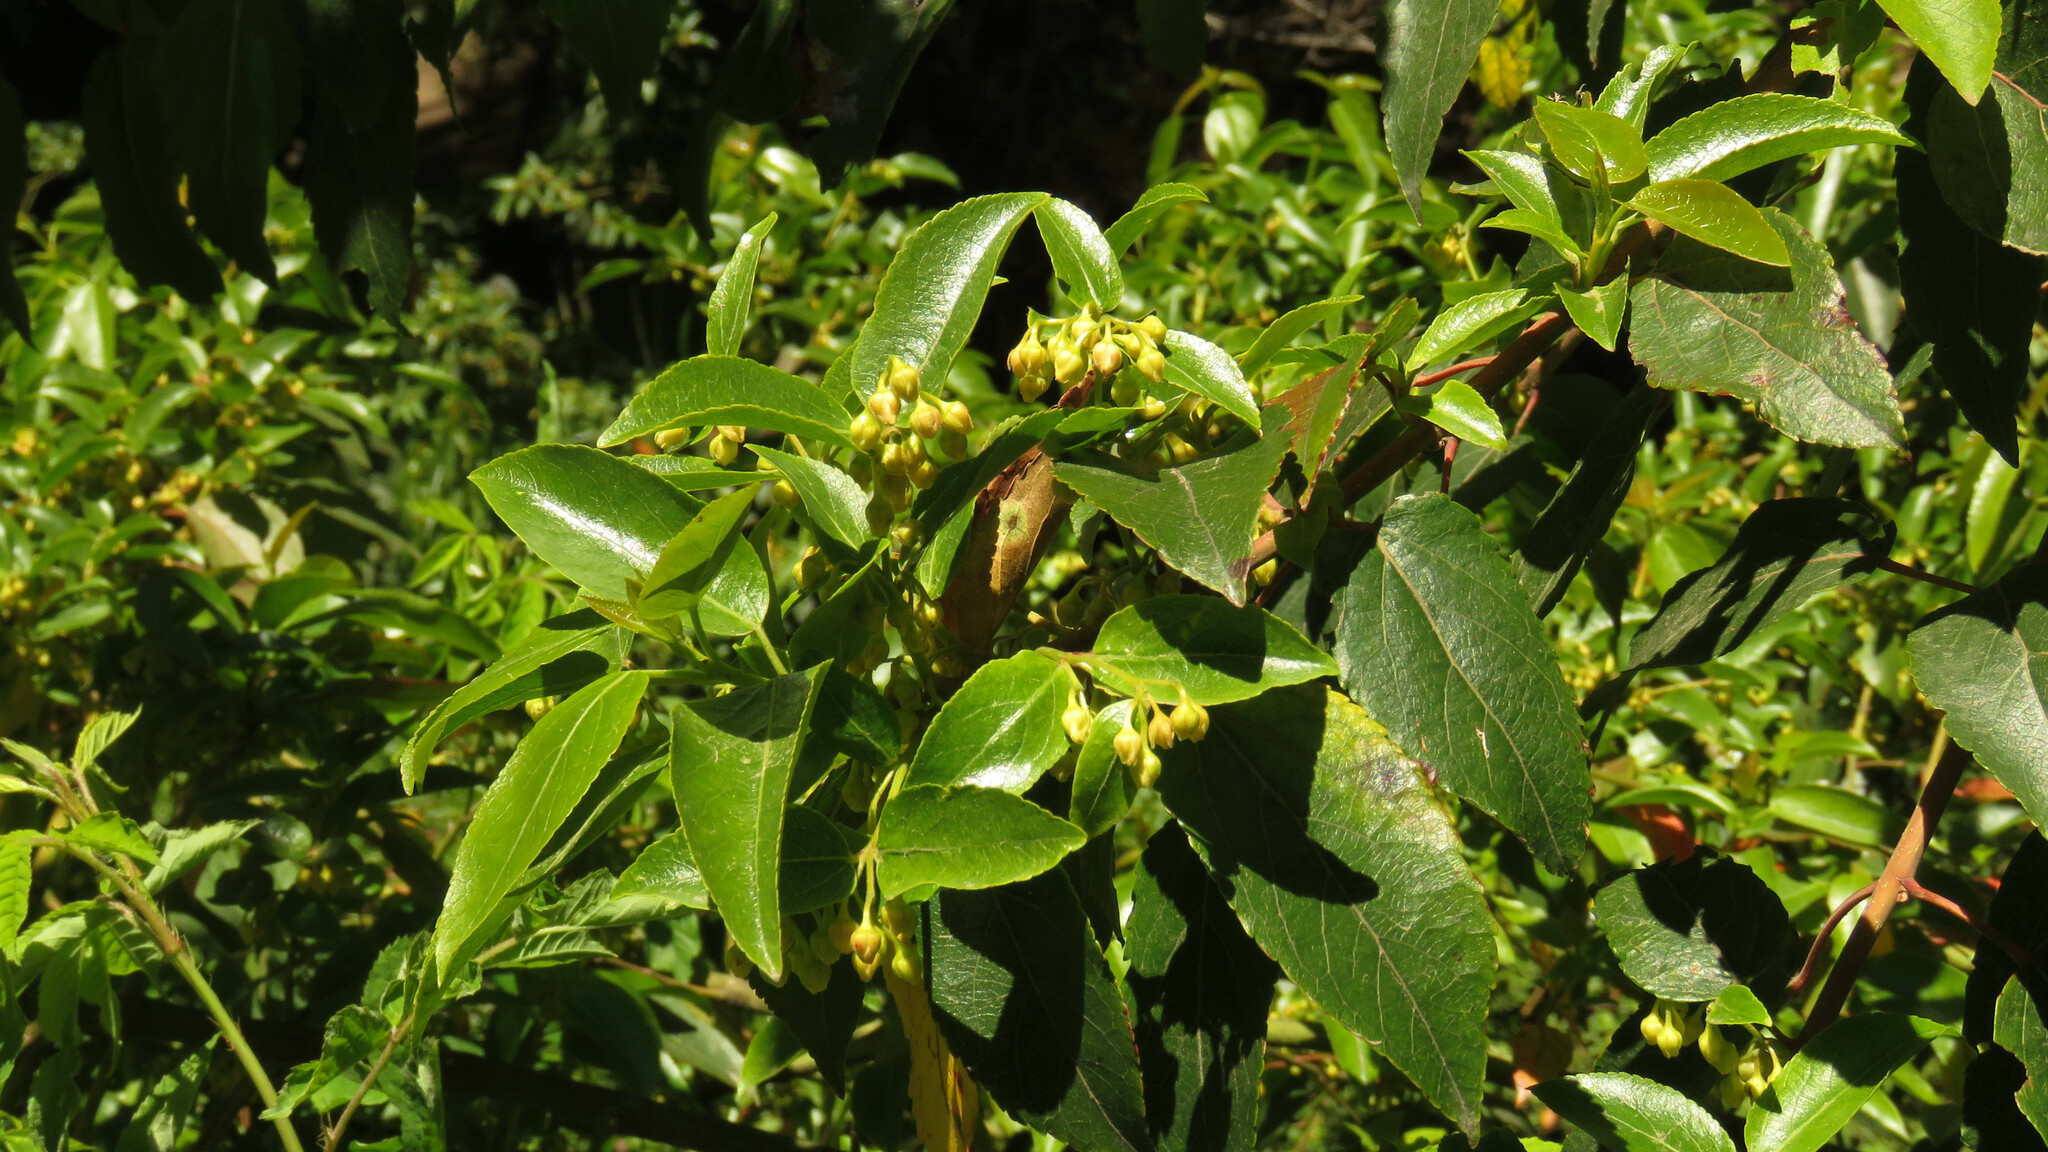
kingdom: Plantae
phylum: Tracheophyta
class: Magnoliopsida
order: Oxalidales
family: Elaeocarpaceae
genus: Aristotelia
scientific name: Aristotelia chilensis
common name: Maquei
